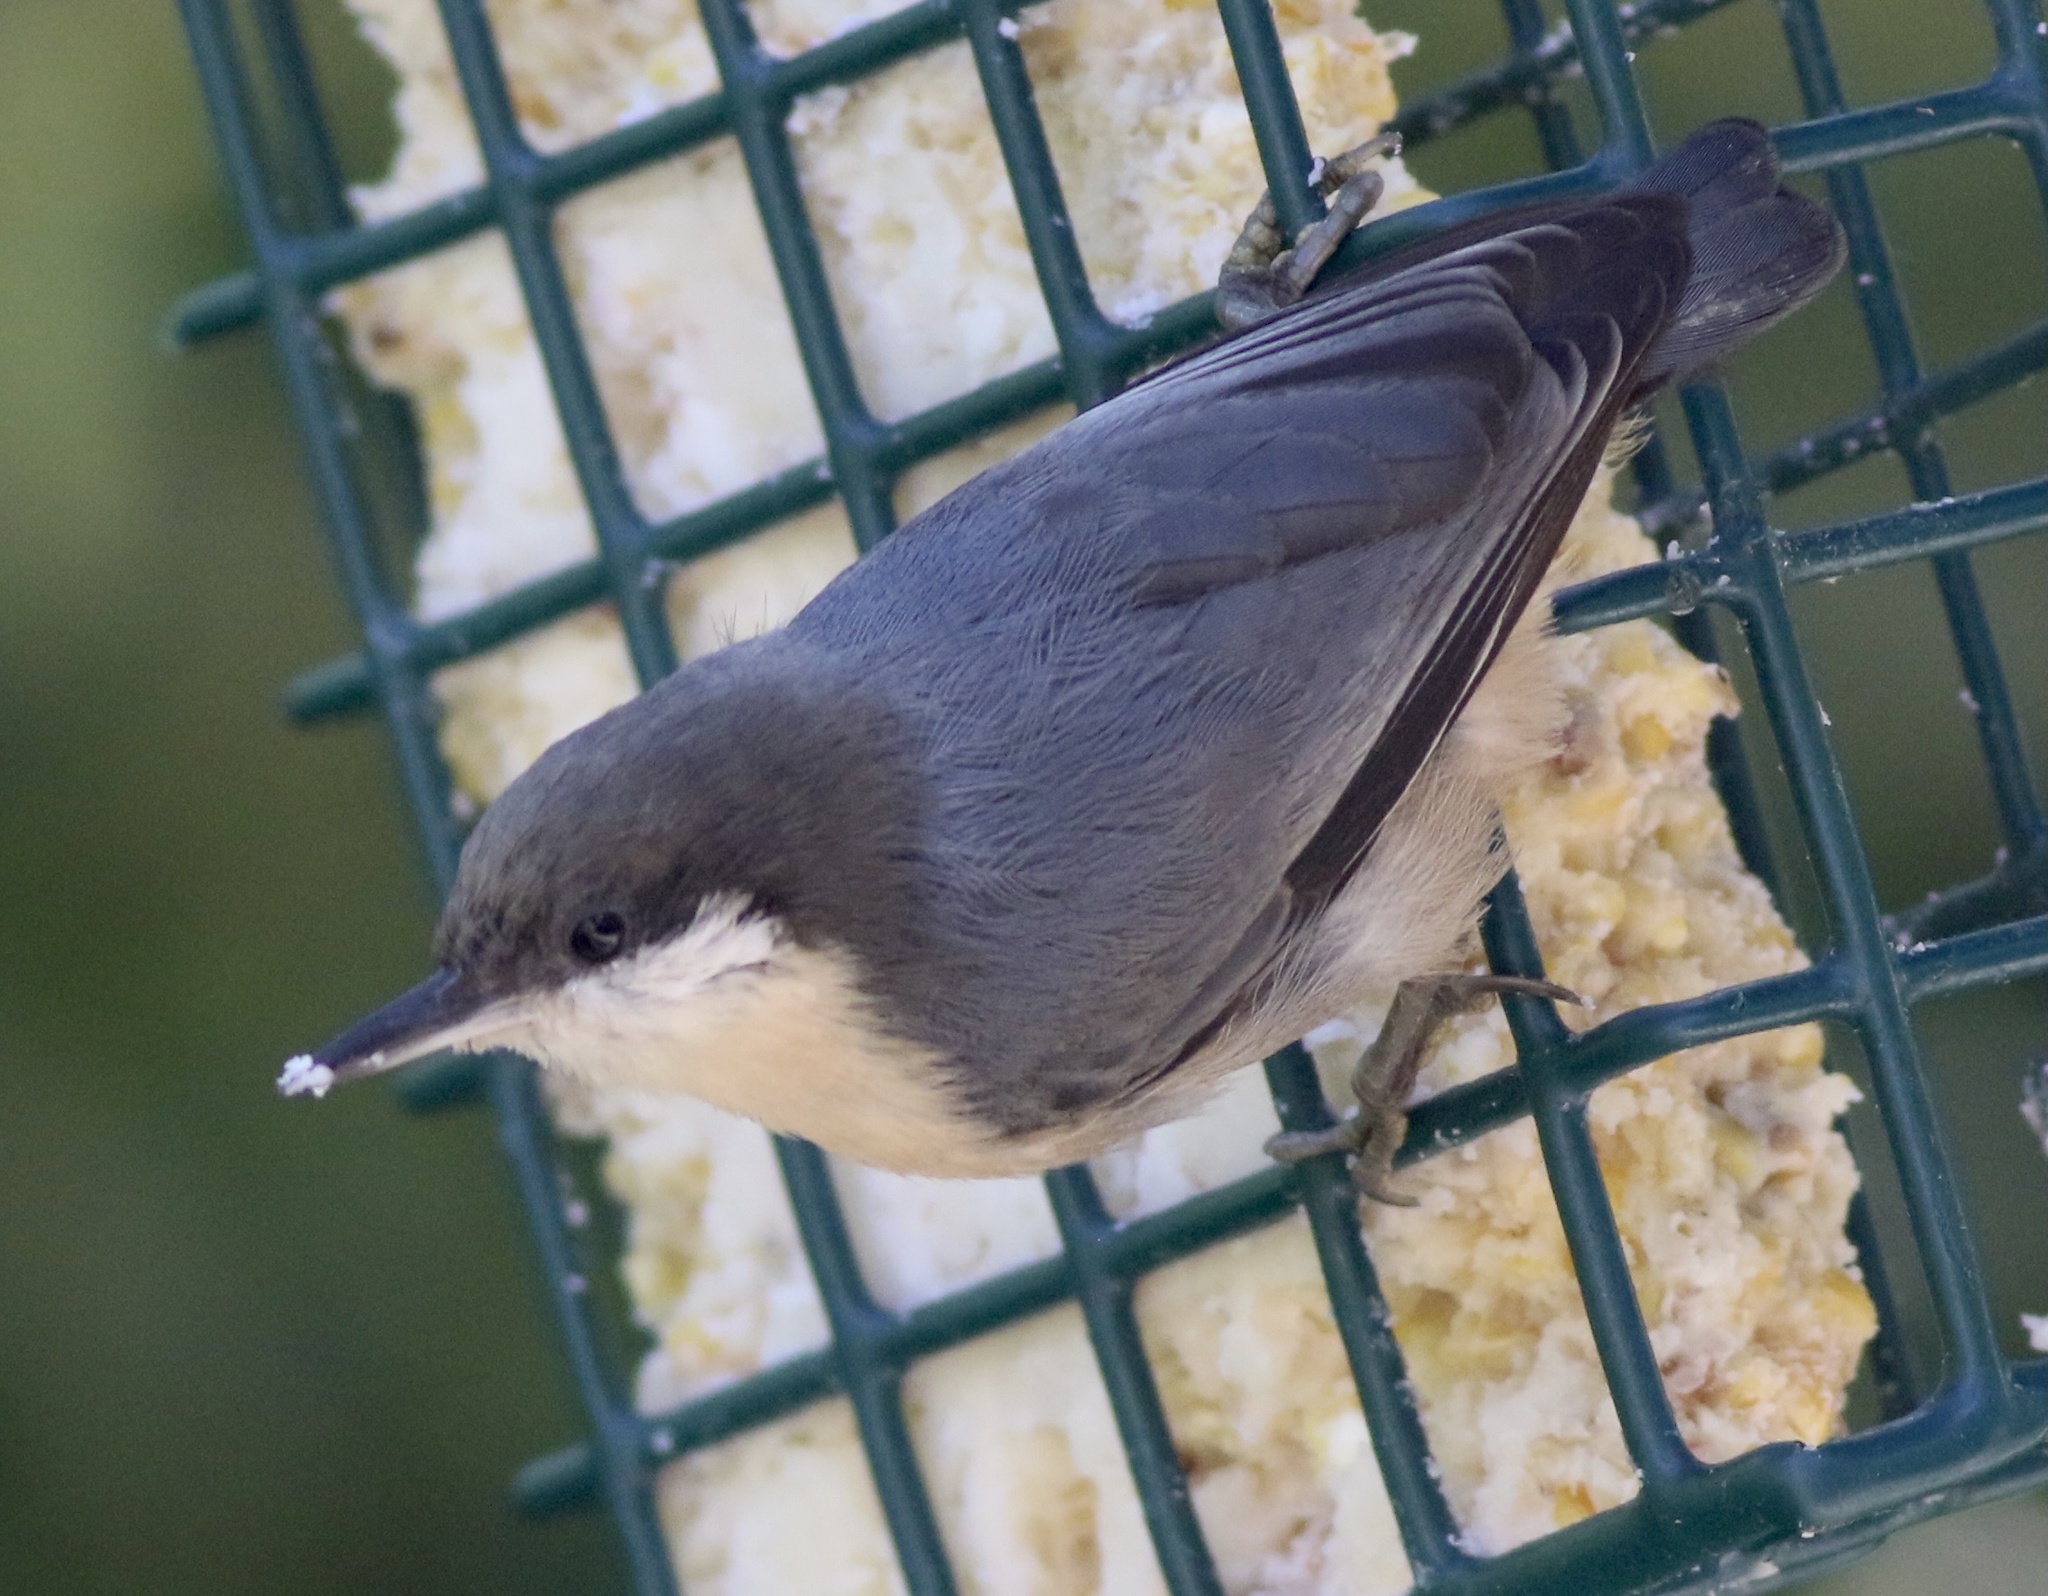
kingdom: Animalia
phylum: Chordata
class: Aves
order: Passeriformes
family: Sittidae
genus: Sitta
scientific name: Sitta pygmaea
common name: Pygmy nuthatch
